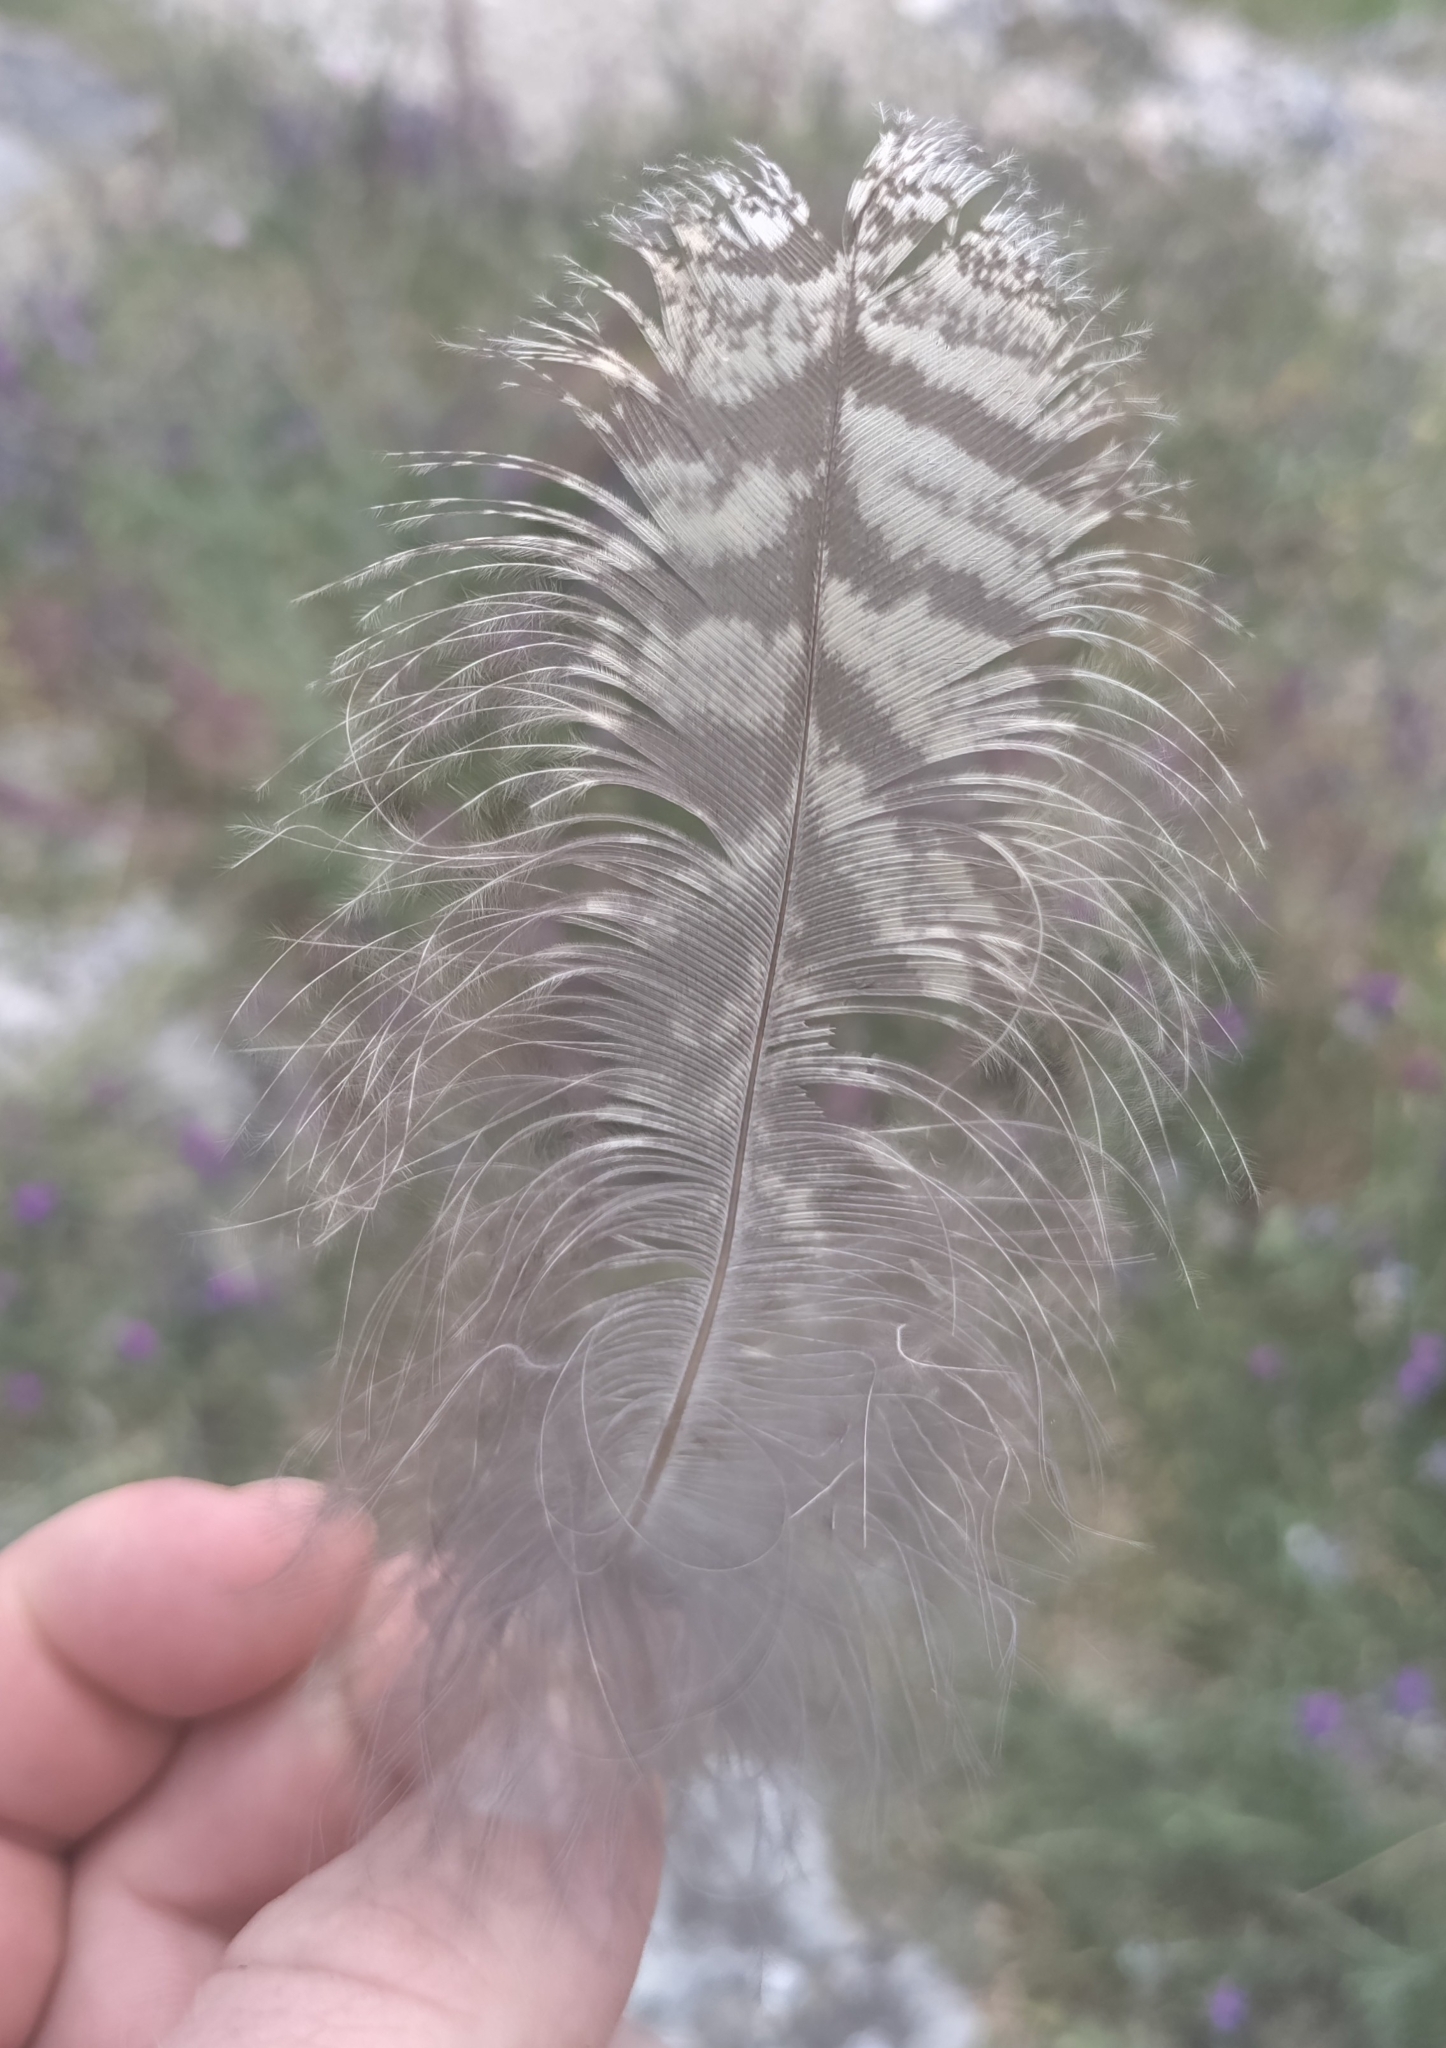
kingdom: Animalia
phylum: Chordata
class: Aves
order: Strigiformes
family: Strigidae
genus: Asio
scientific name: Asio otus
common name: Long-eared owl
